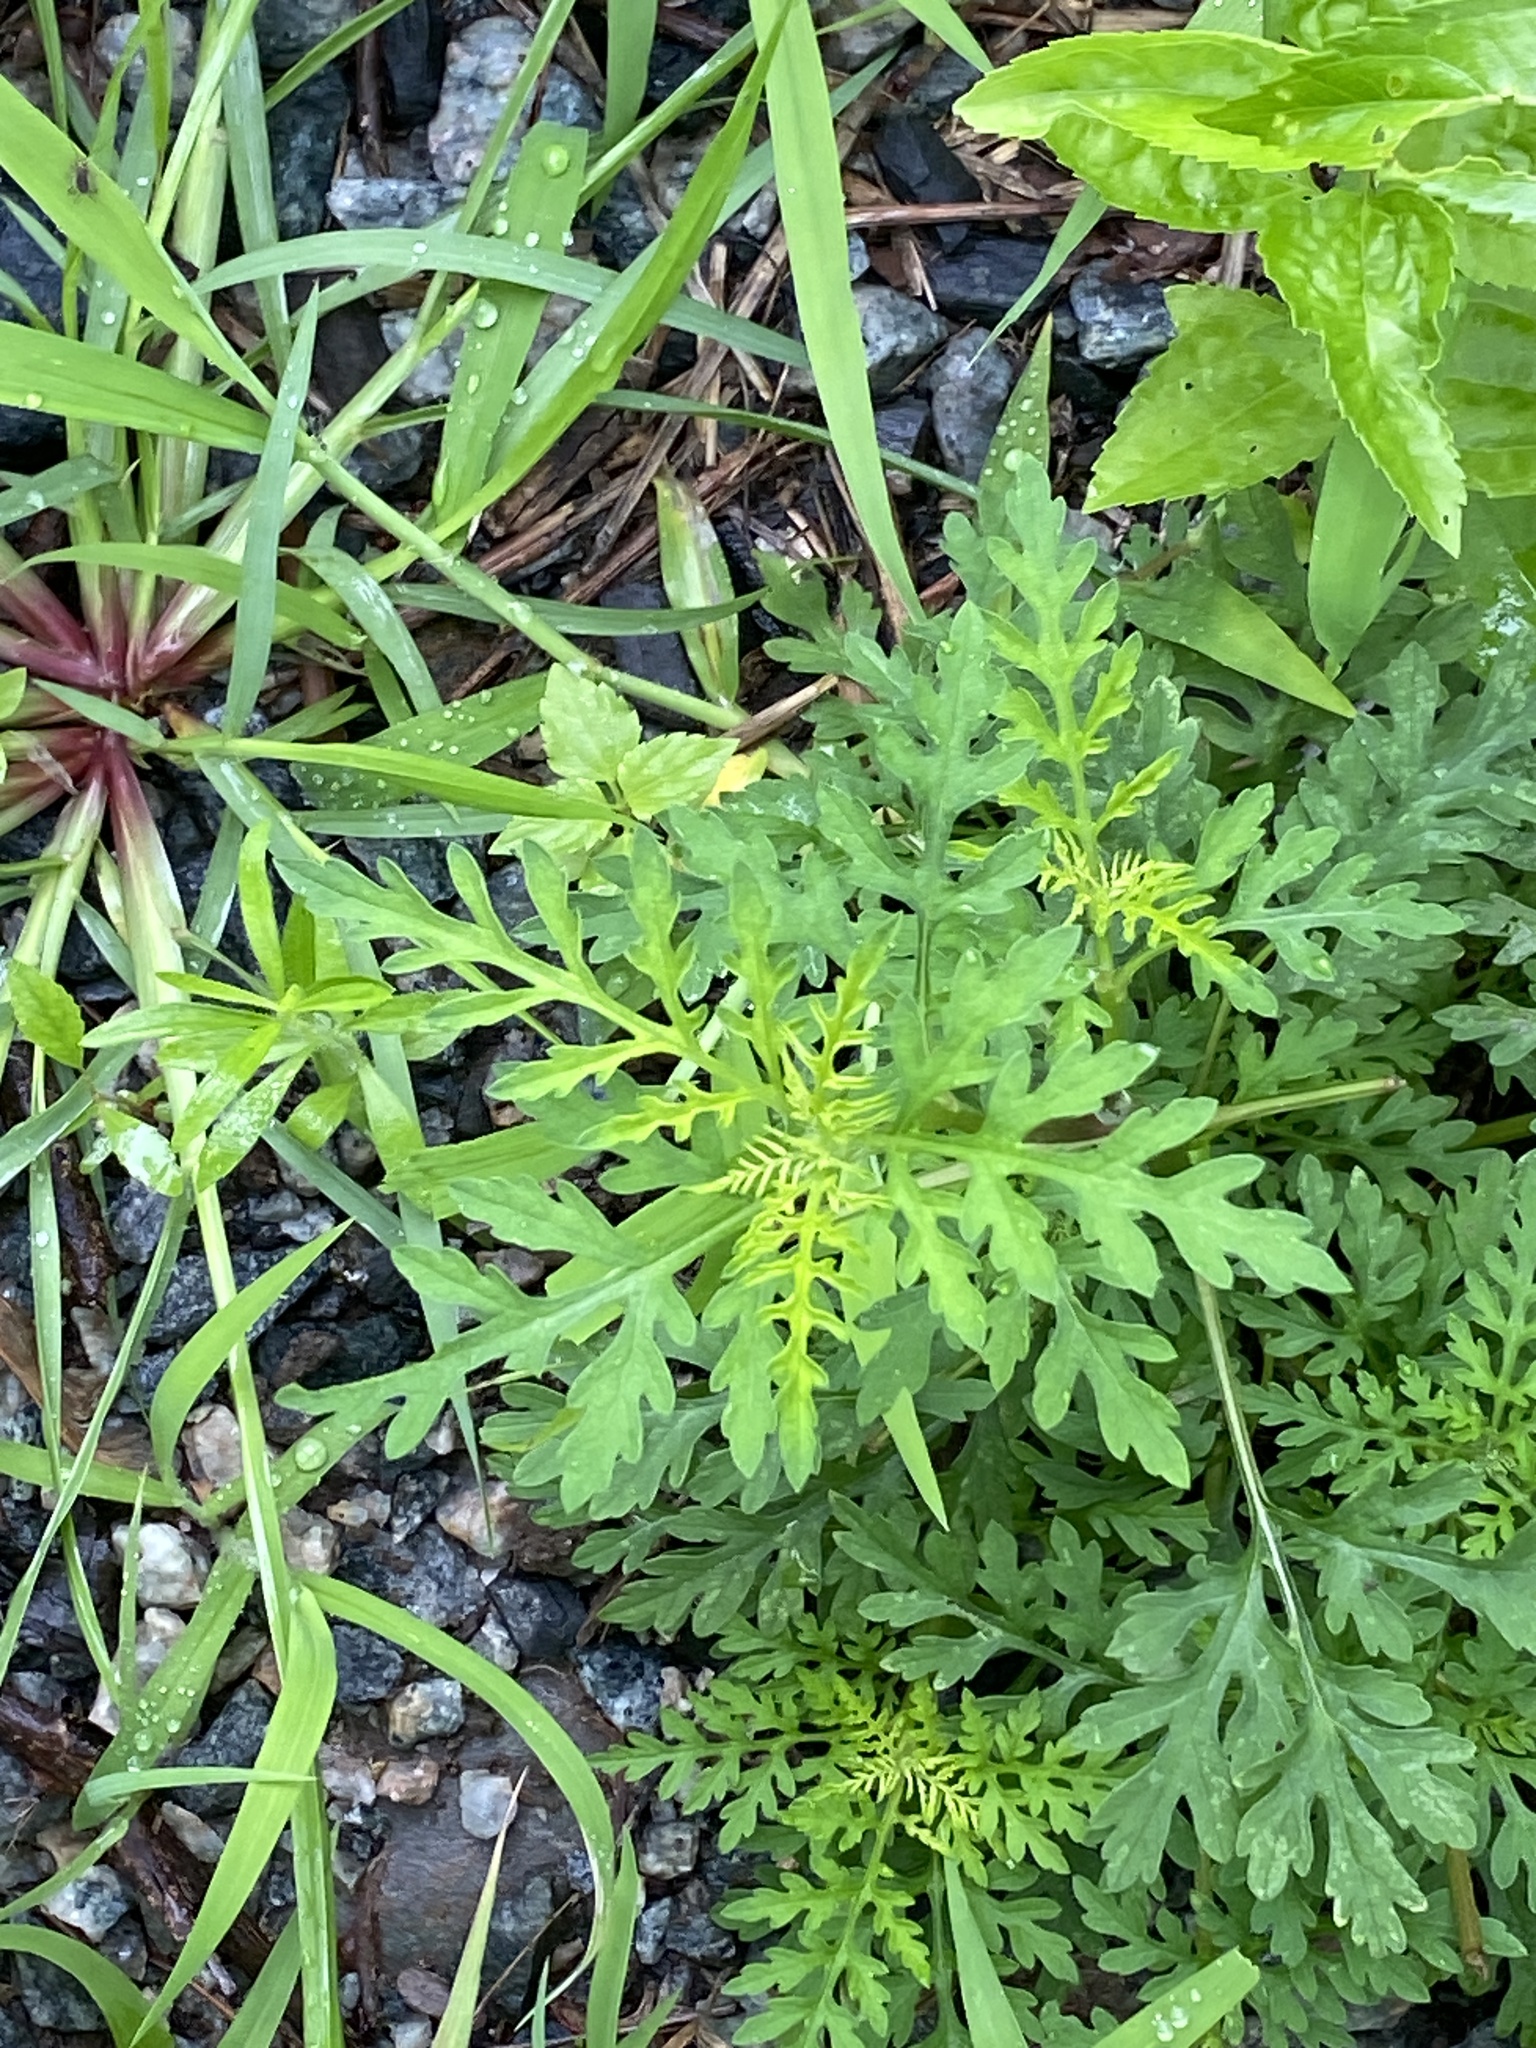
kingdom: Plantae
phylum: Tracheophyta
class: Magnoliopsida
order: Asterales
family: Asteraceae
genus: Ambrosia
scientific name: Ambrosia artemisiifolia
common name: Annual ragweed
